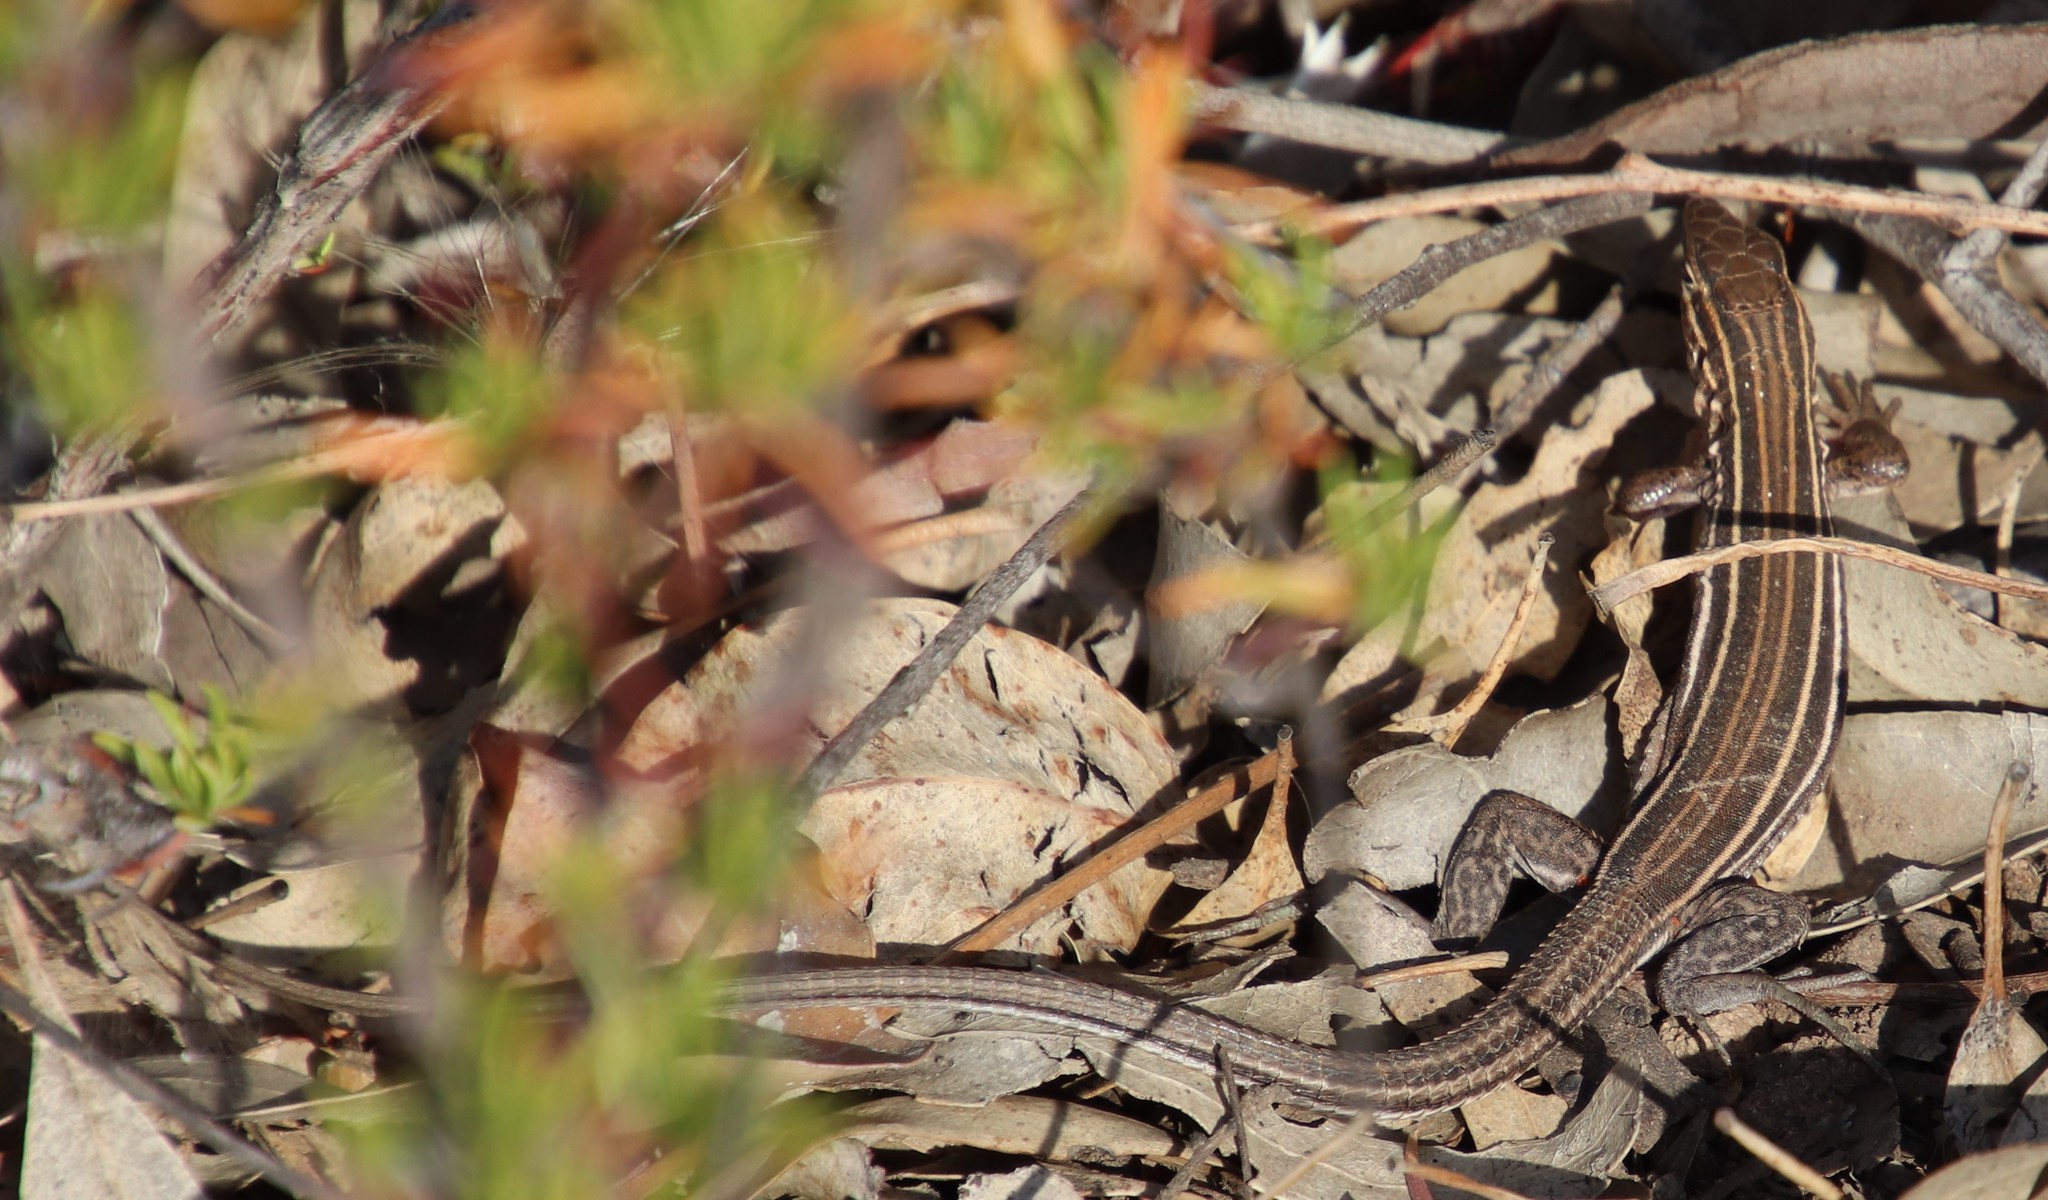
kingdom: Animalia
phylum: Chordata
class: Squamata
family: Teiidae
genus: Aspidoscelis
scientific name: Aspidoscelis hyperythrus
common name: Orange-throated race-runner
